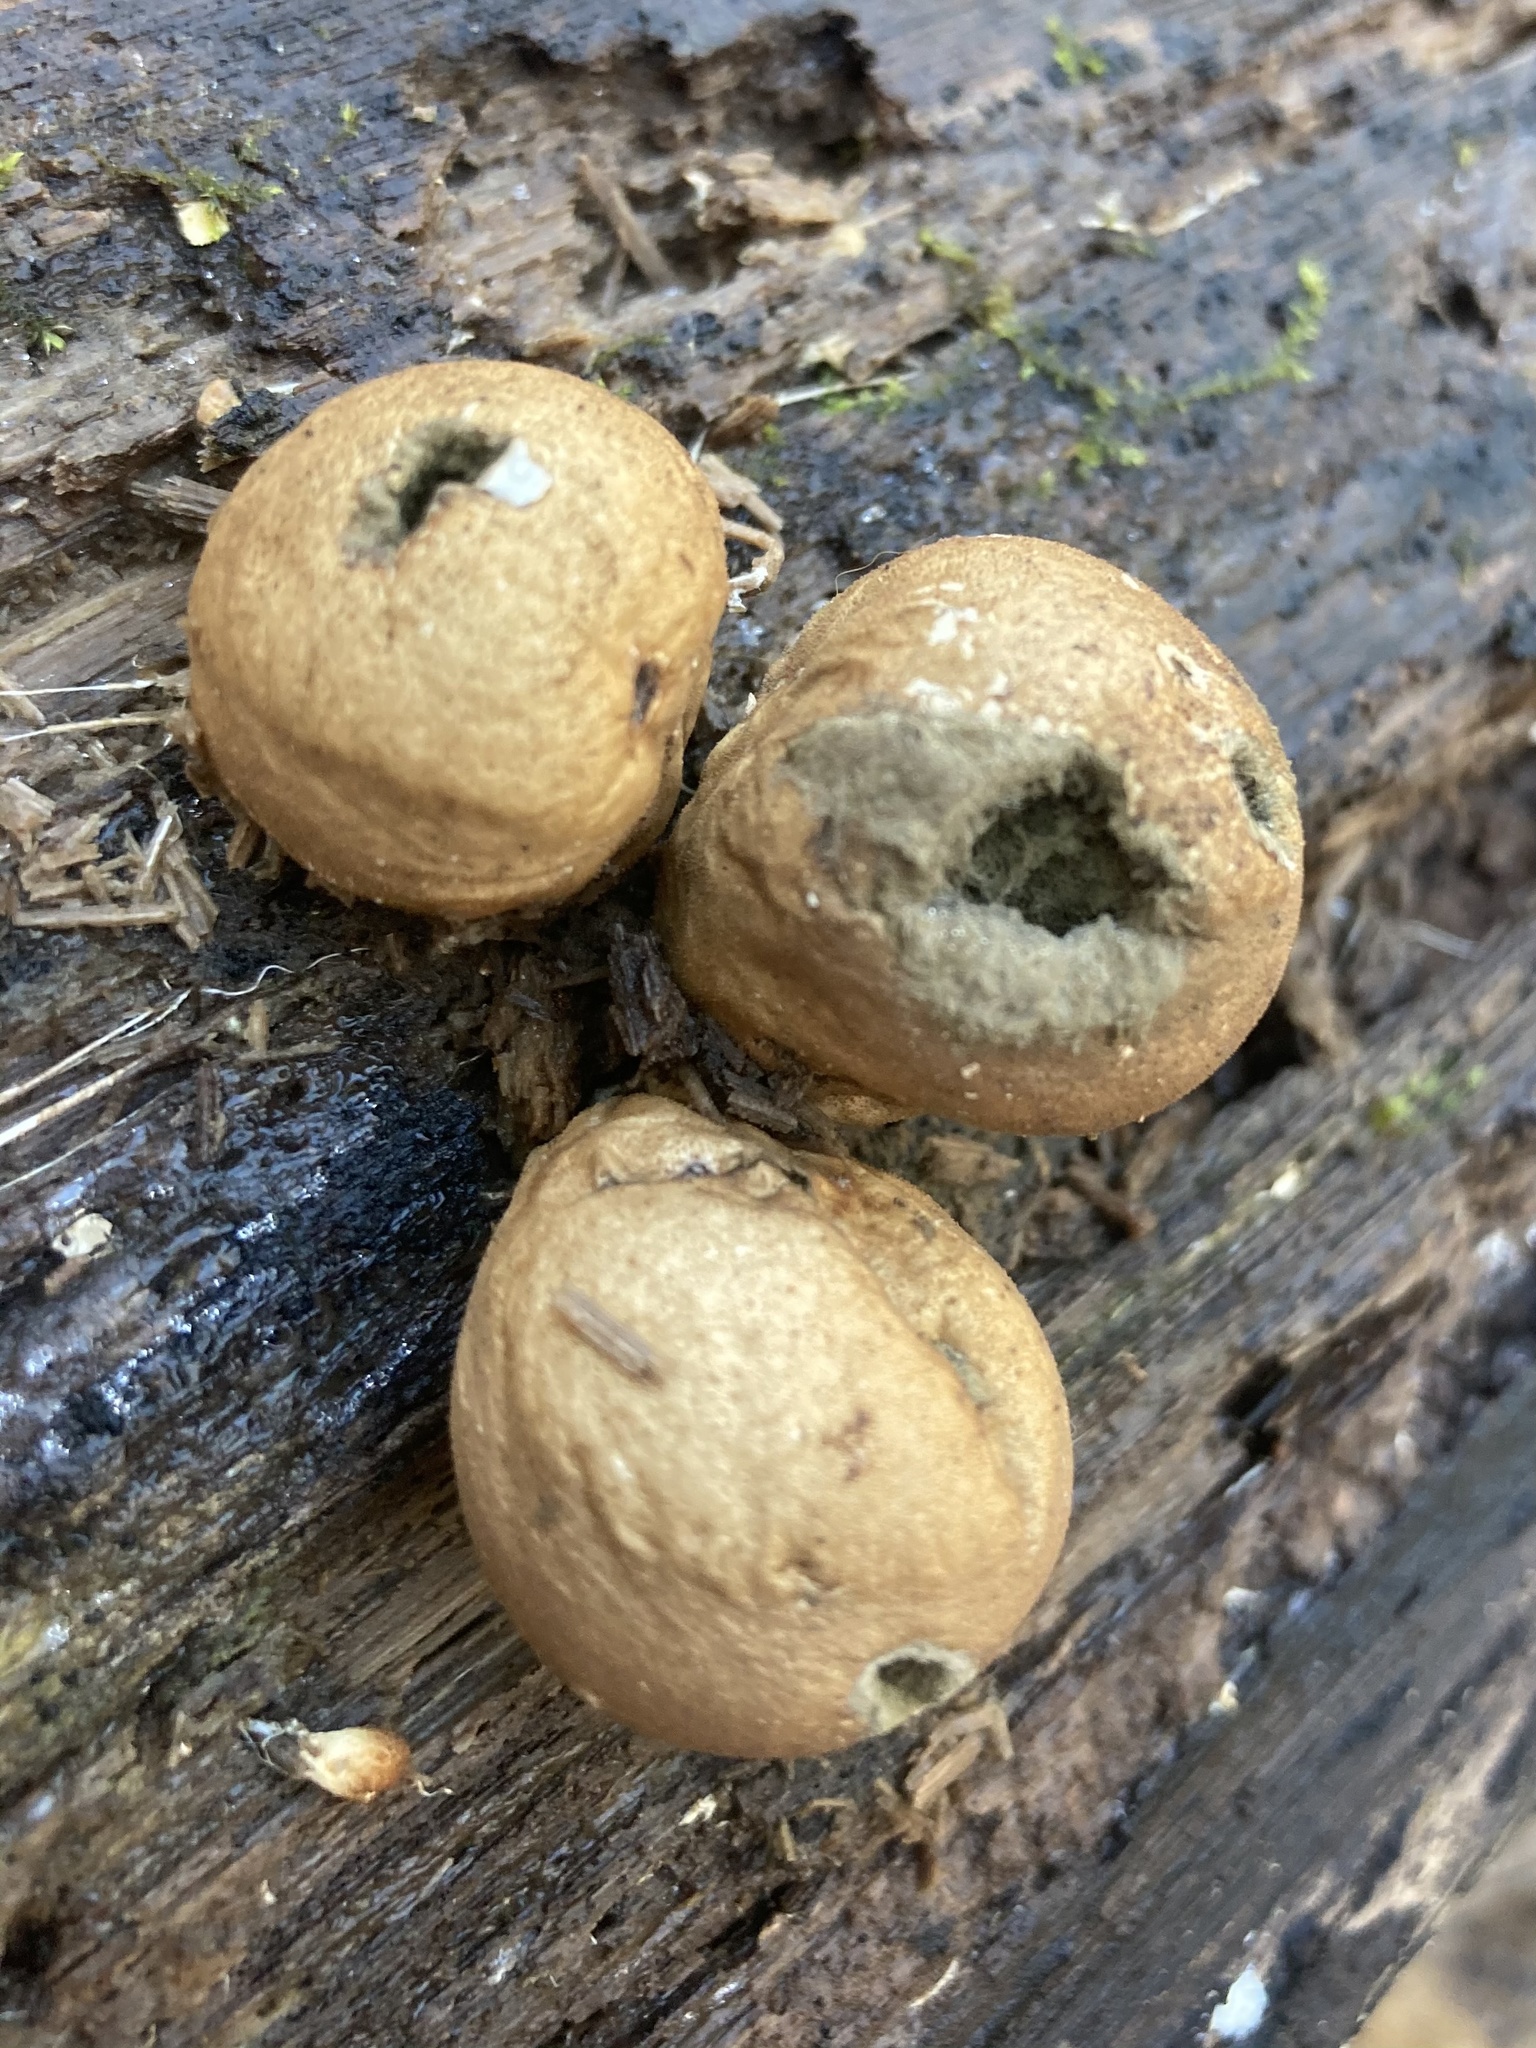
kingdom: Fungi
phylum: Basidiomycota
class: Agaricomycetes
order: Agaricales
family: Lycoperdaceae
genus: Apioperdon
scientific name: Apioperdon pyriforme
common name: Pear-shaped puffball
